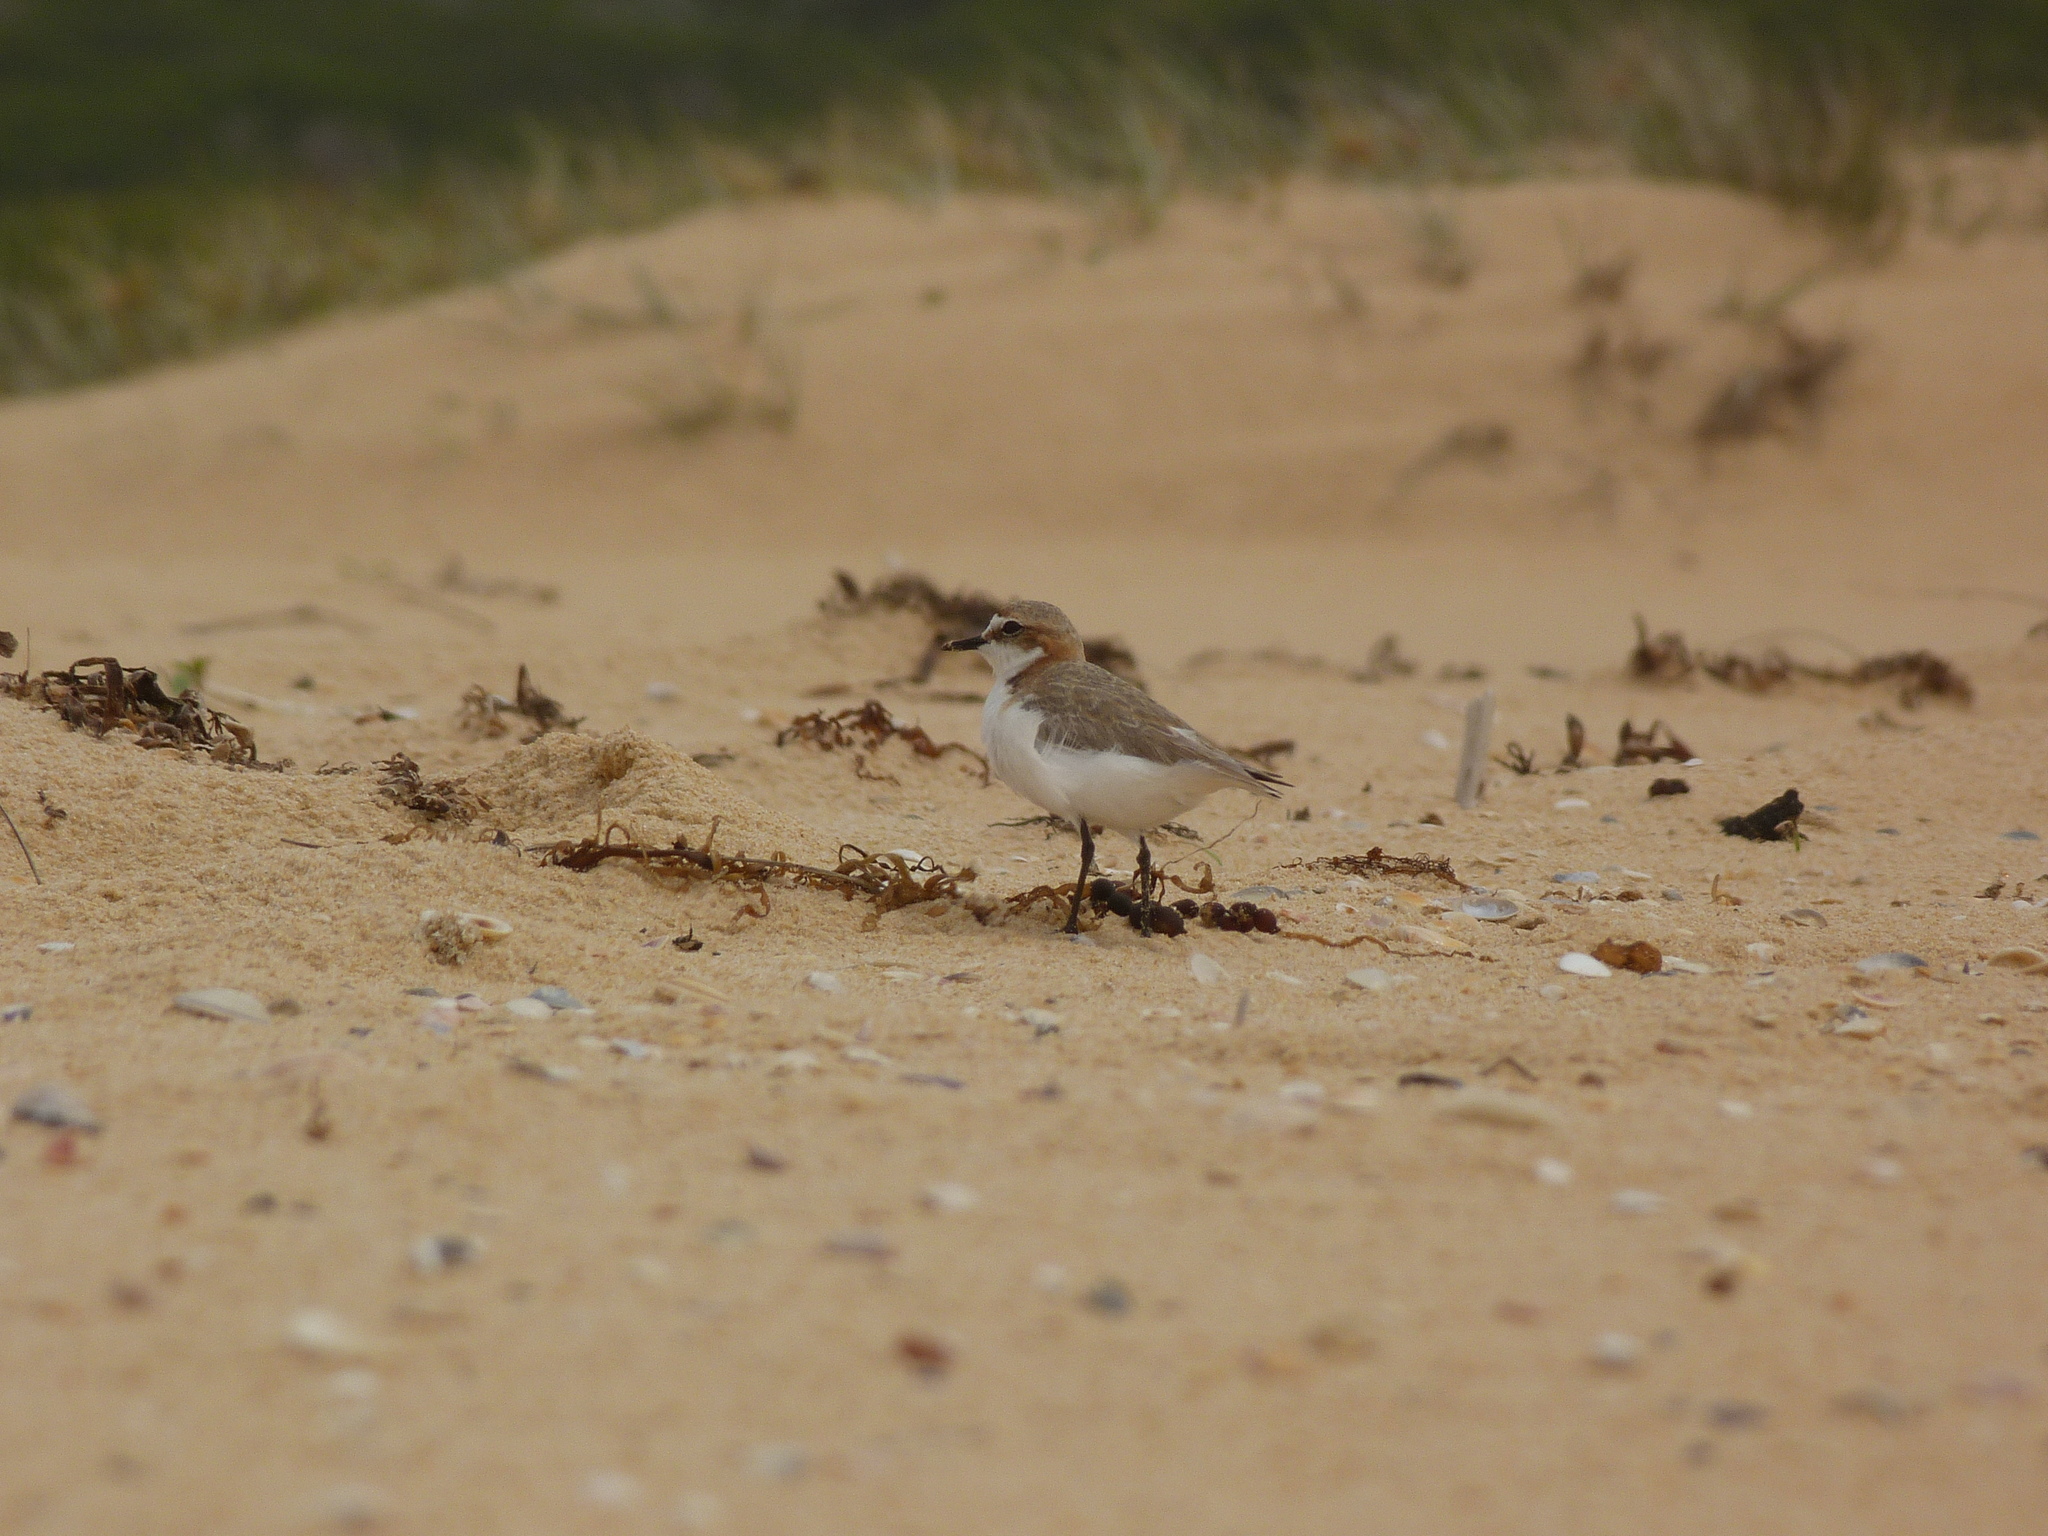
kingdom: Animalia
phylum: Chordata
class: Aves
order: Charadriiformes
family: Charadriidae
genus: Anarhynchus
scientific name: Anarhynchus
